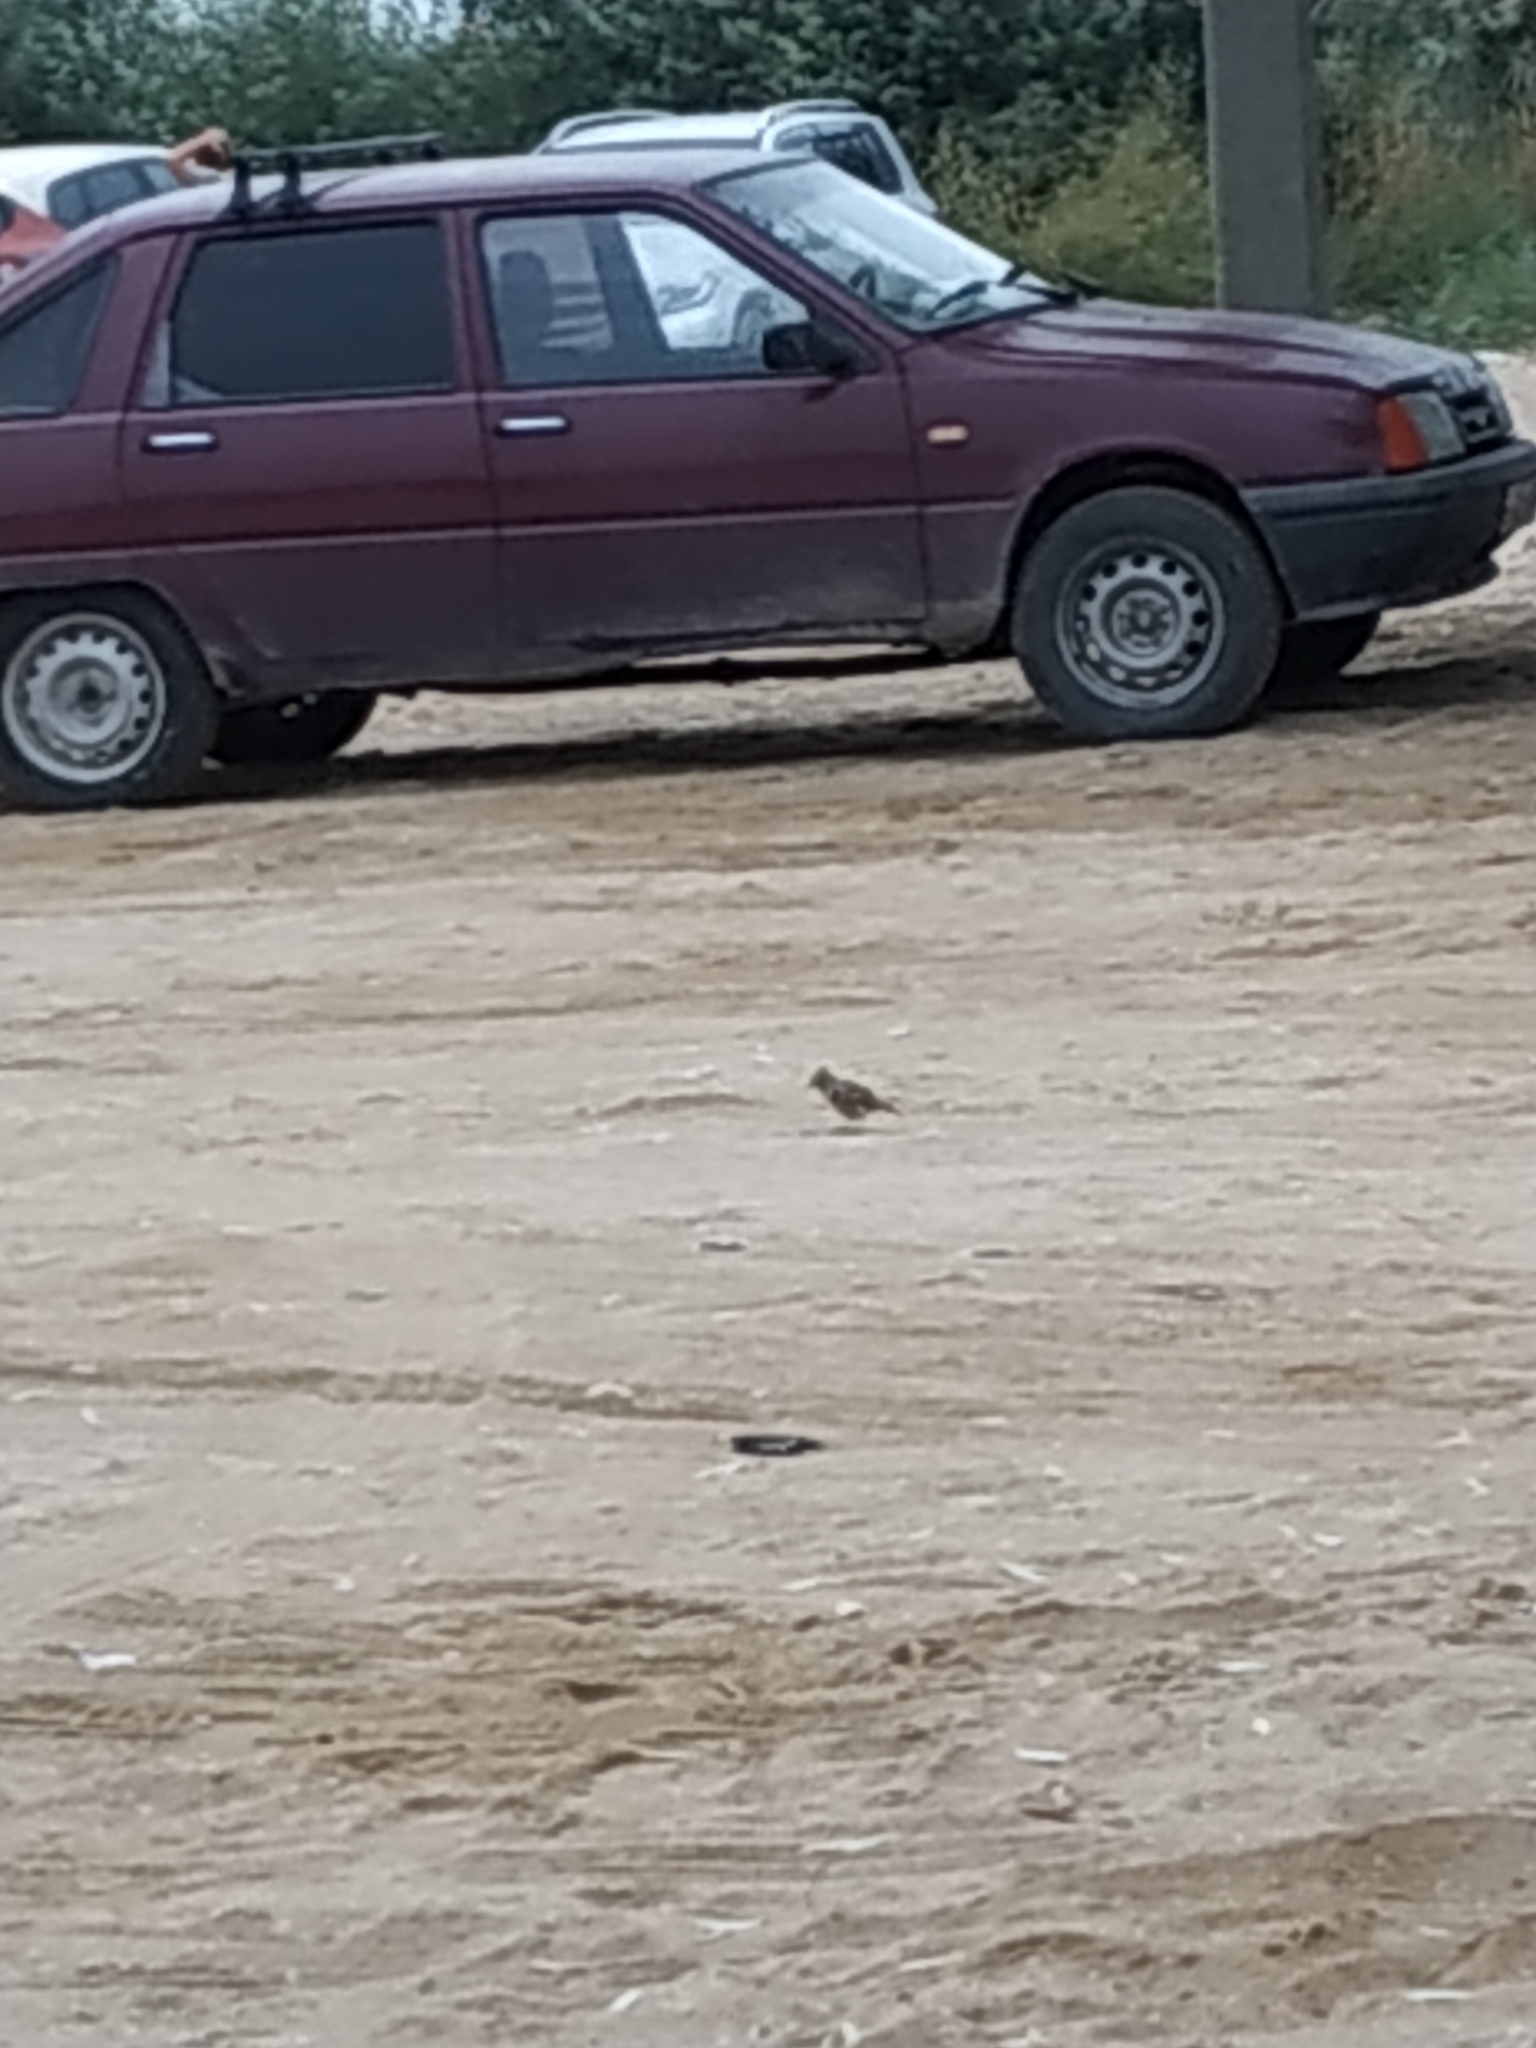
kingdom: Animalia
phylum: Chordata
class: Aves
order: Passeriformes
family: Alaudidae
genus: Galerida
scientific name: Galerida cristata
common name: Crested lark
